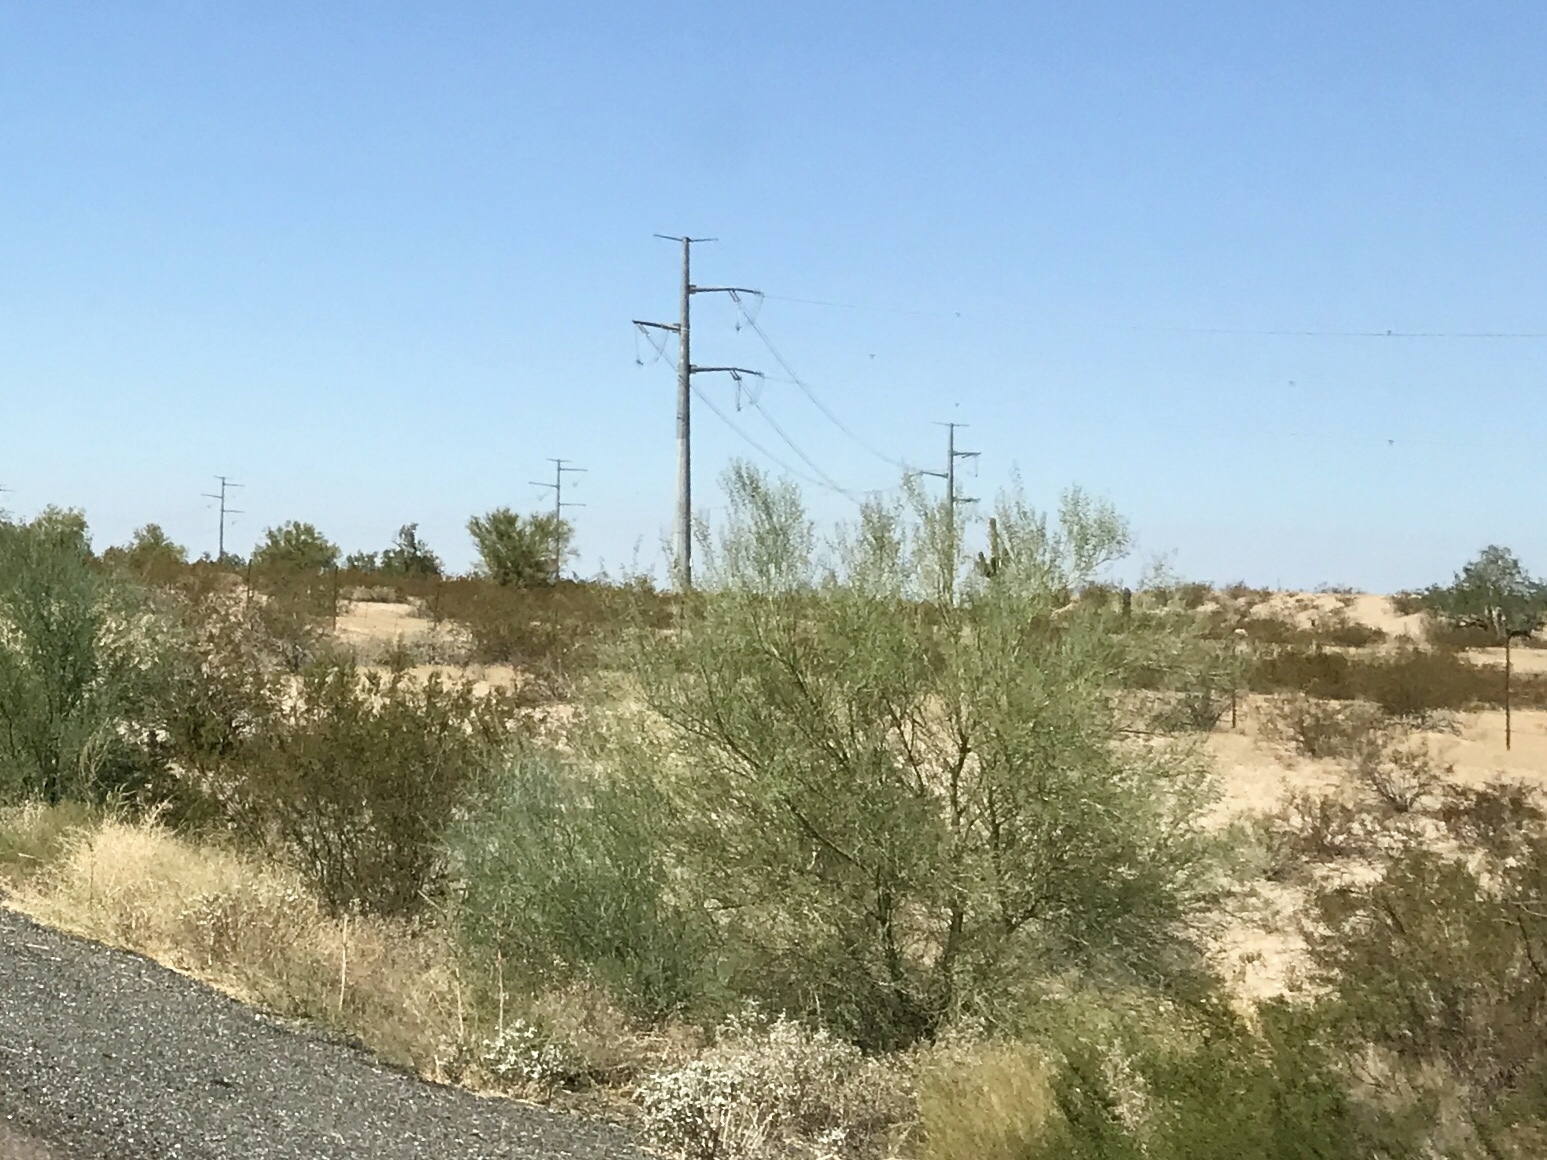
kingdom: Plantae
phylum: Tracheophyta
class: Magnoliopsida
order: Fabales
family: Fabaceae
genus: Parkinsonia
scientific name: Parkinsonia florida
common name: Blue paloverde
